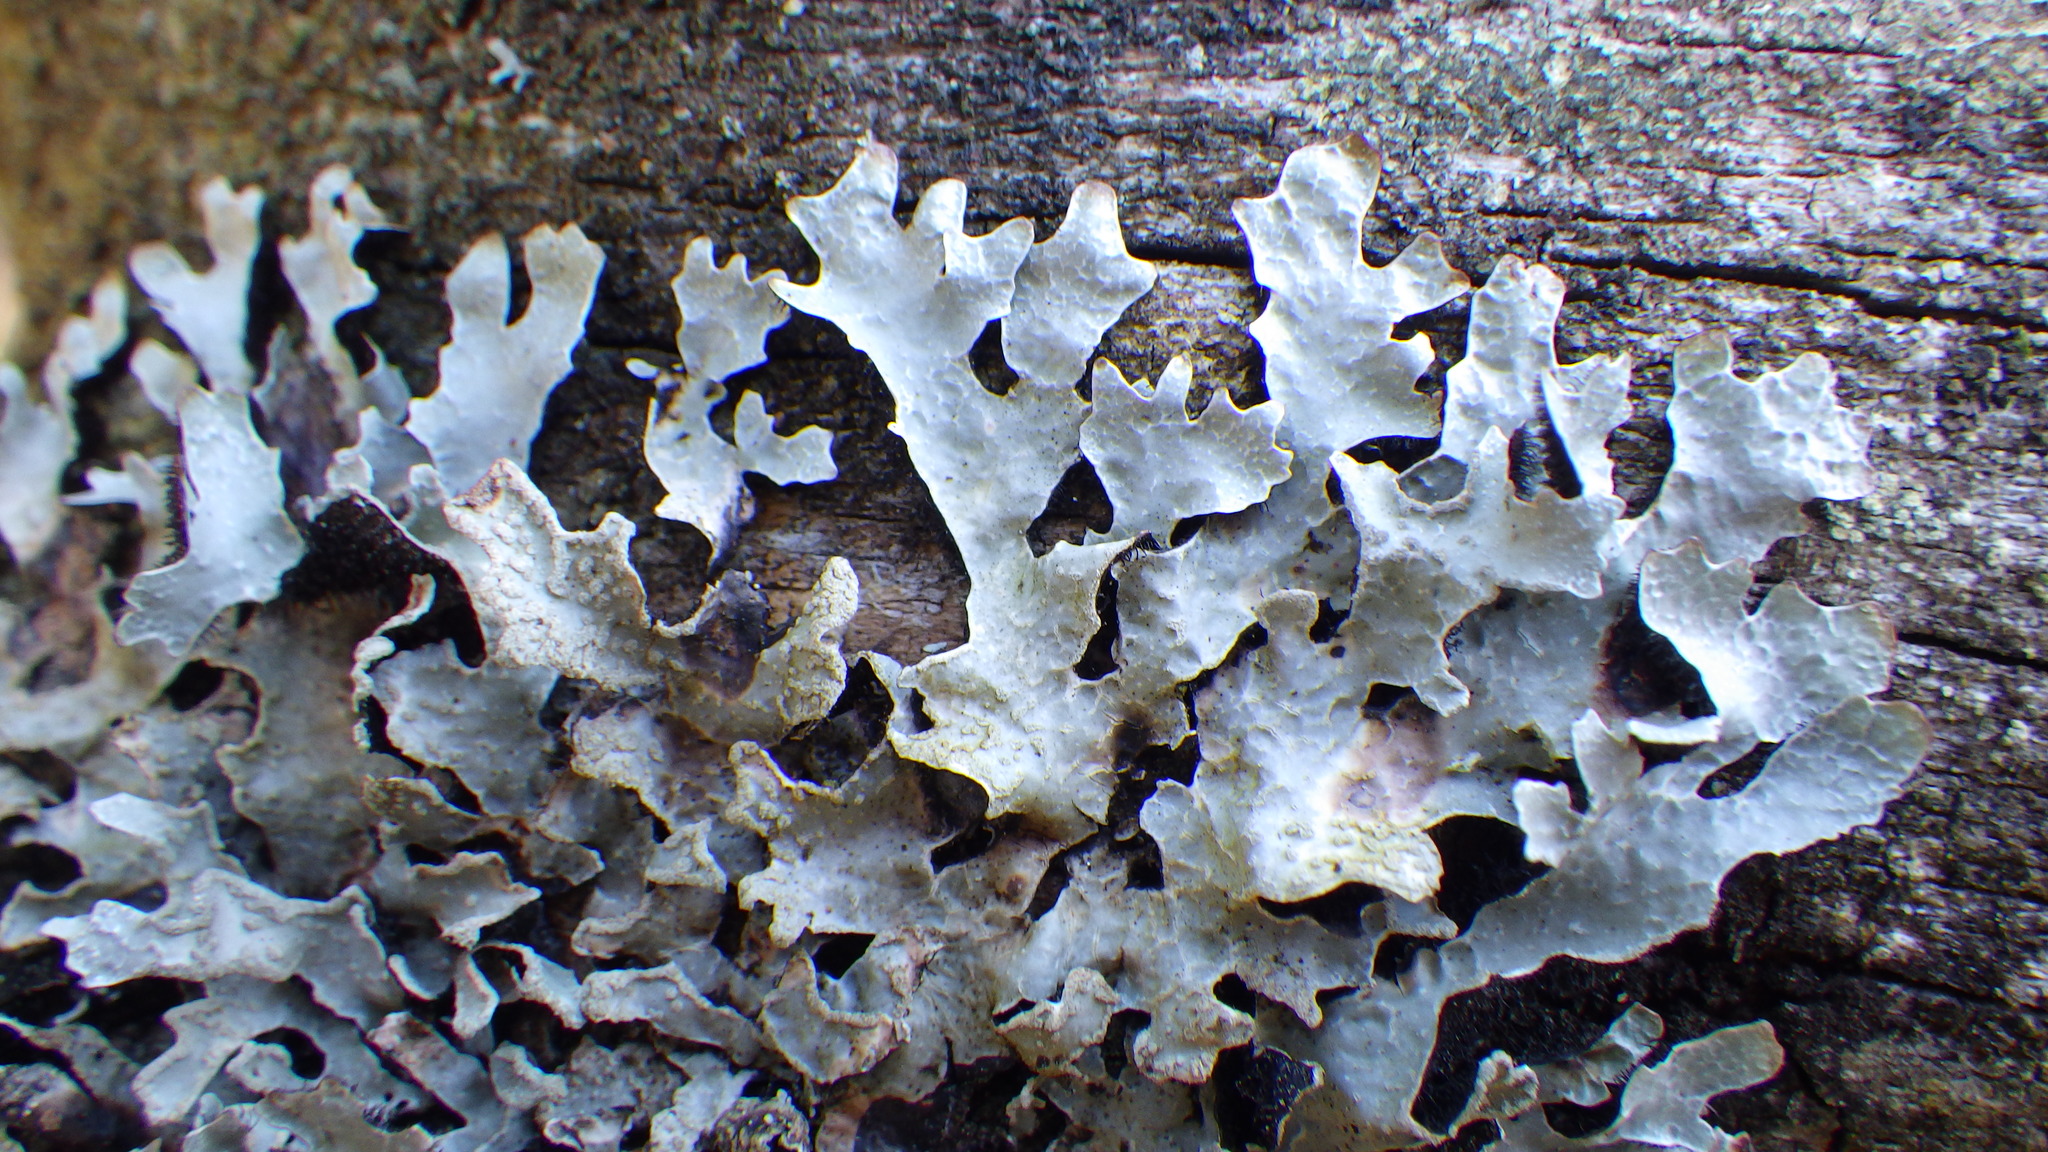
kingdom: Fungi
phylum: Ascomycota
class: Lecanoromycetes
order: Lecanorales
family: Parmeliaceae
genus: Parmelia
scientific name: Parmelia sulcata
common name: Netted shield lichen
